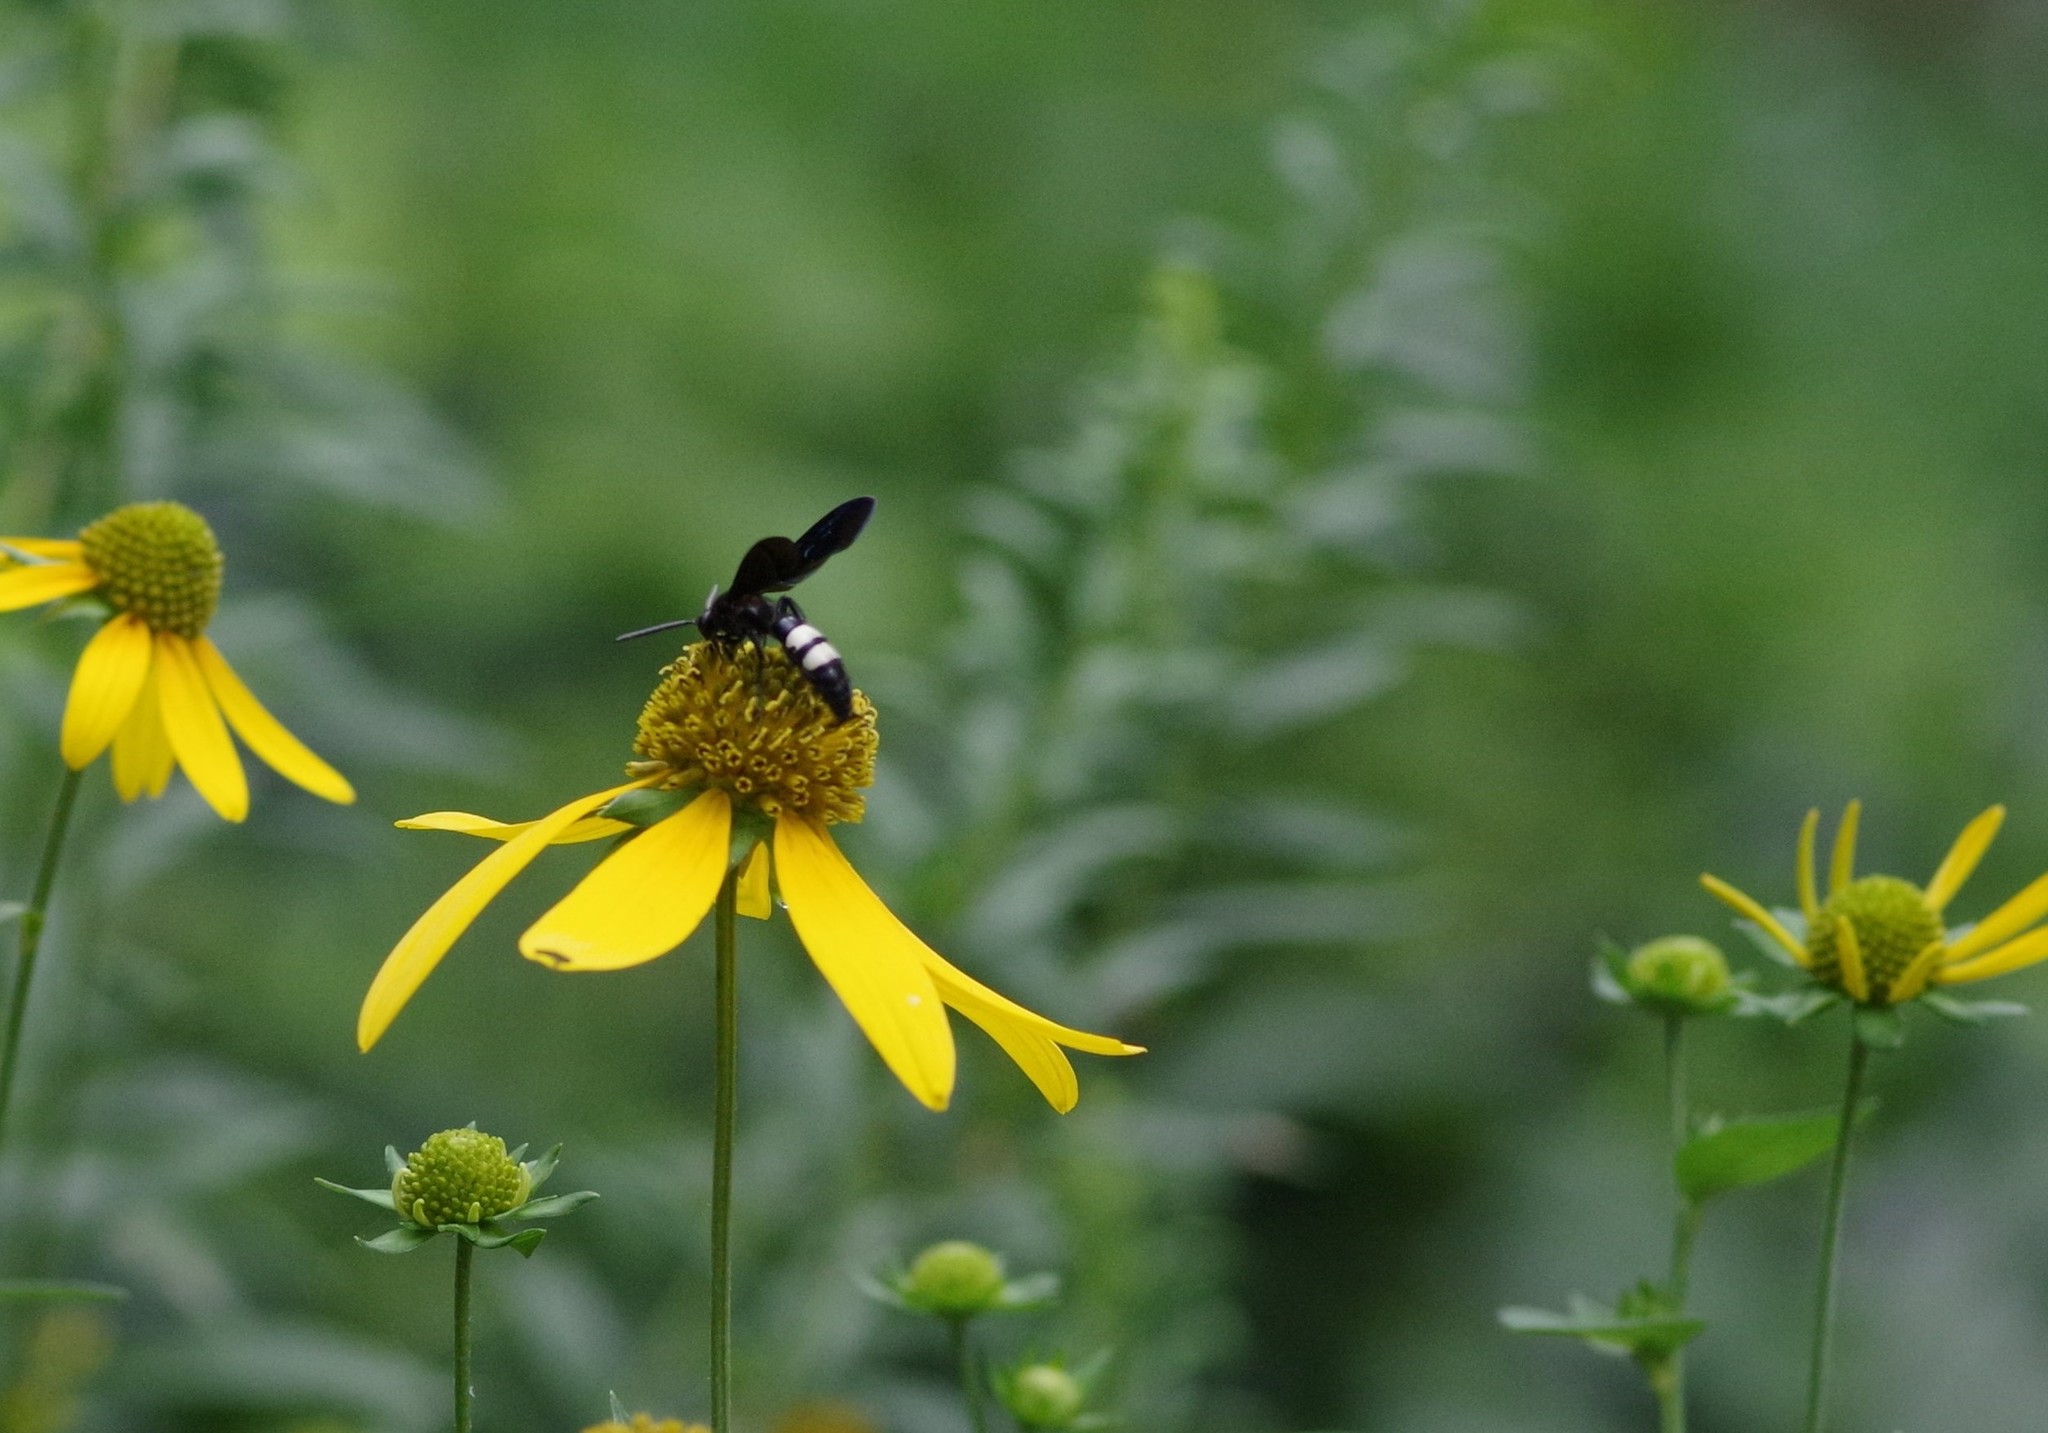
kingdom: Animalia
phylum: Arthropoda
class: Insecta
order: Hymenoptera
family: Scoliidae
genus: Scolia
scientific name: Scolia bicincta
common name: Double-banded scoliid wasp
